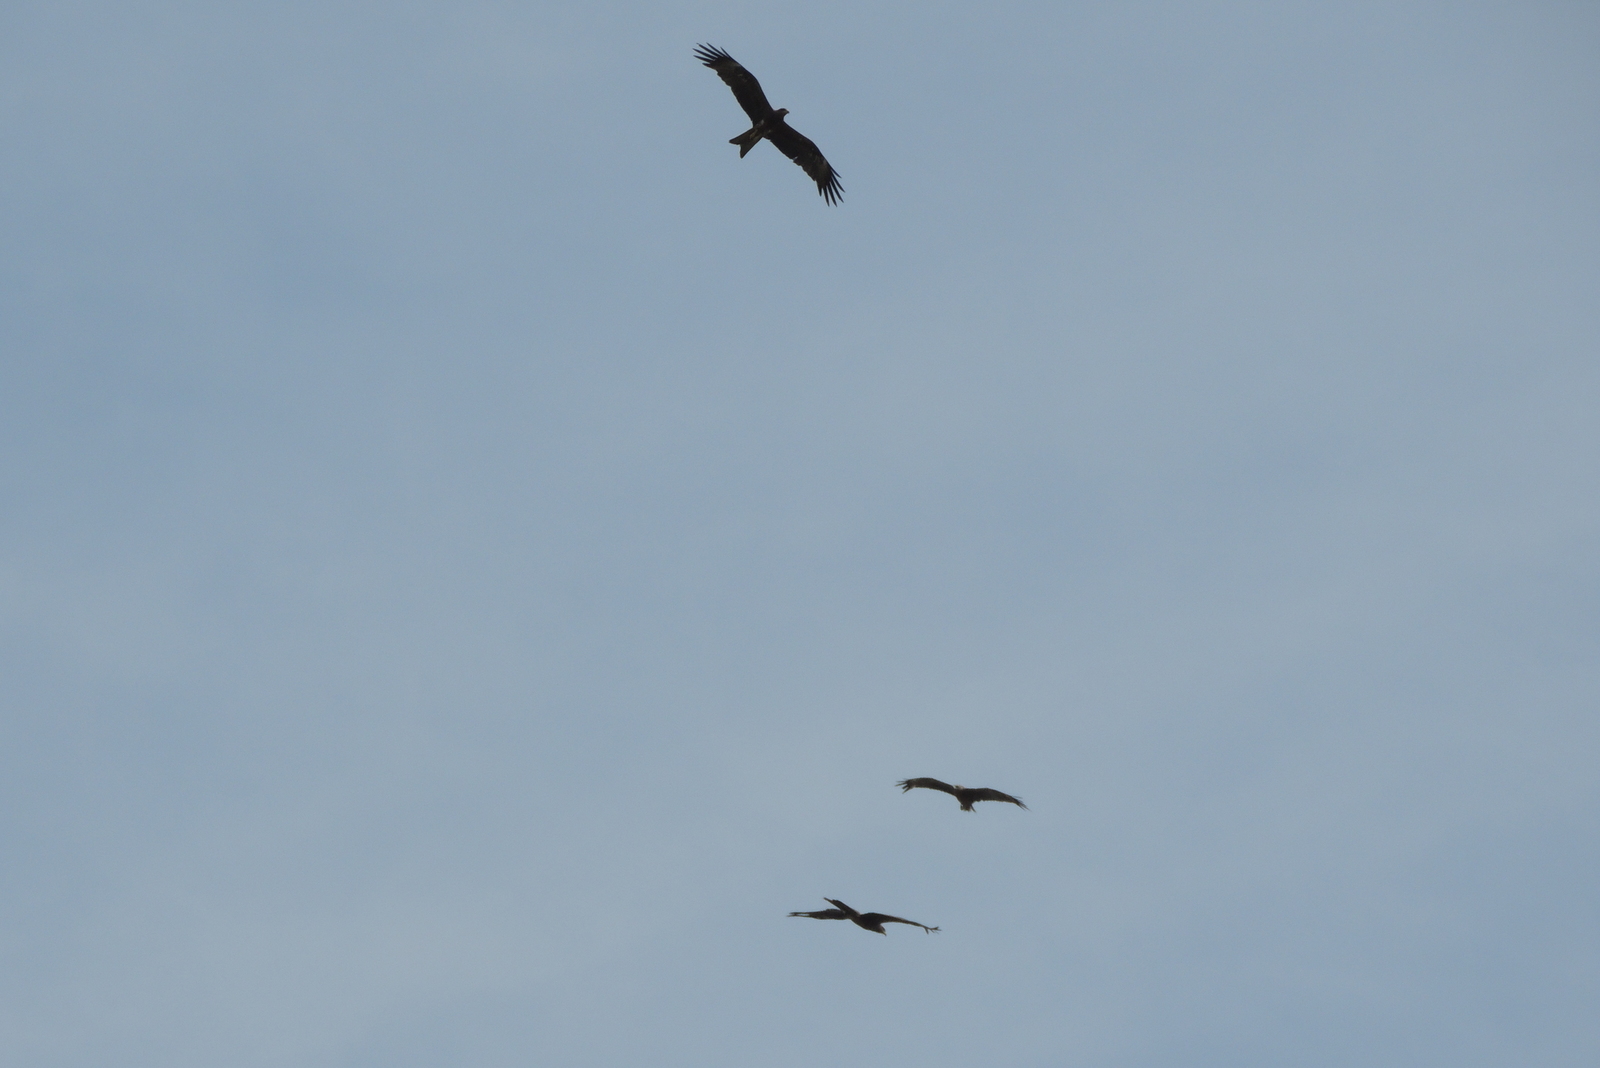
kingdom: Animalia
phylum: Chordata
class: Aves
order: Accipitriformes
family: Accipitridae
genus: Milvus
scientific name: Milvus migrans
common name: Black kite
